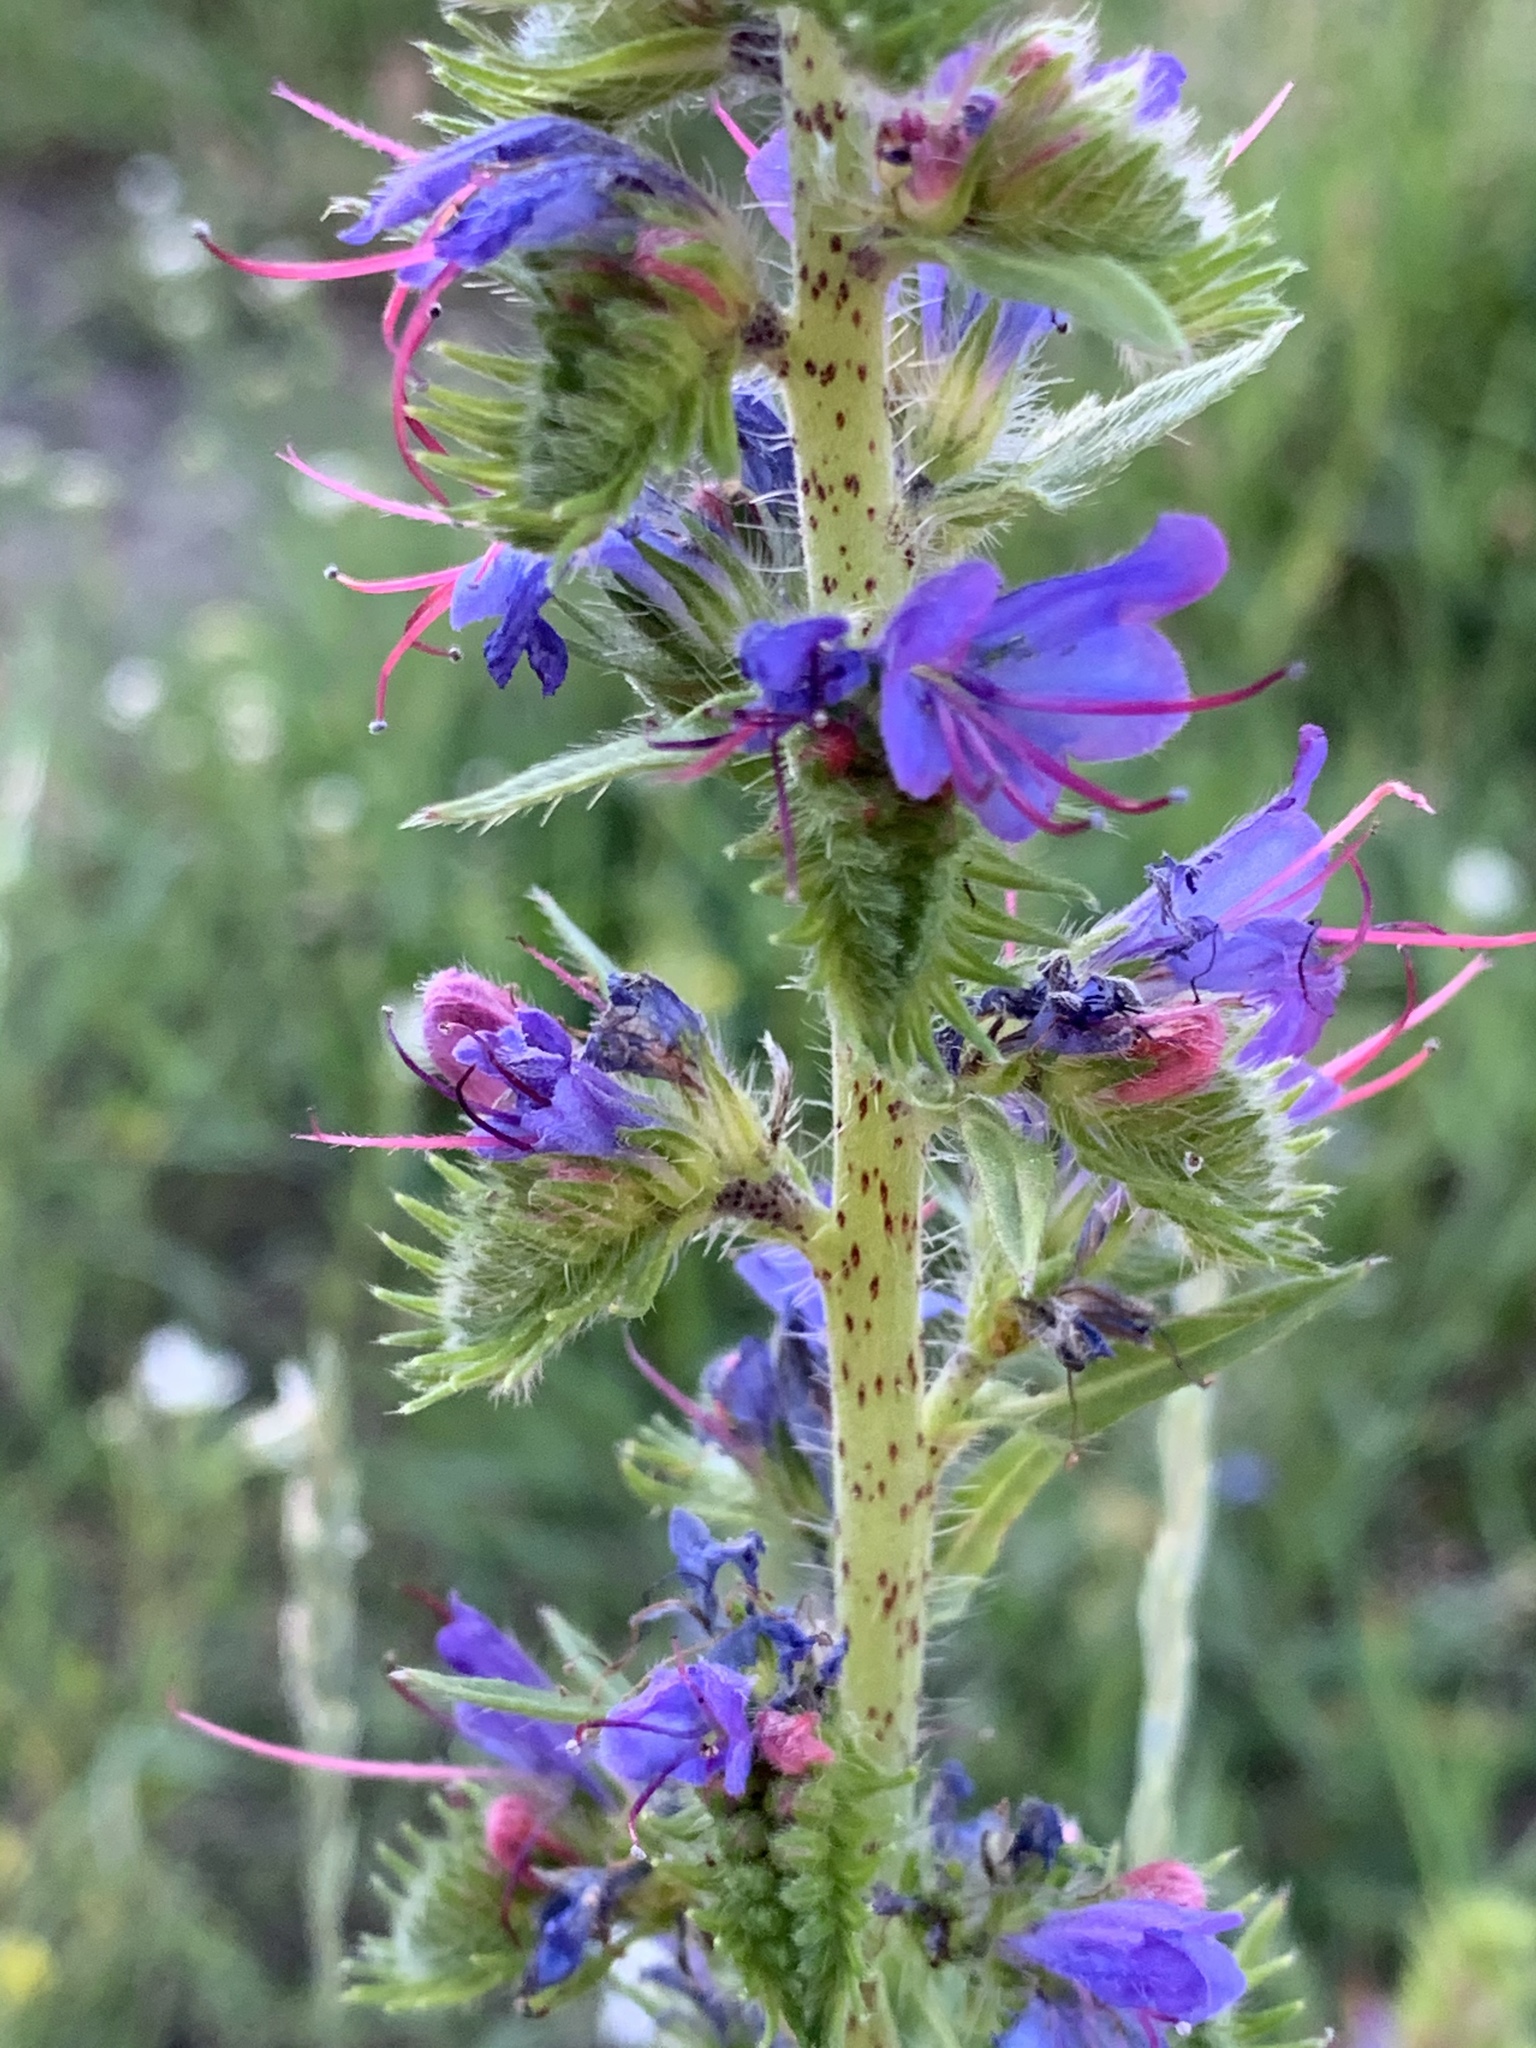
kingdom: Plantae
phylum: Tracheophyta
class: Magnoliopsida
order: Boraginales
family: Boraginaceae
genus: Echium
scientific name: Echium vulgare
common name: Common viper's bugloss
